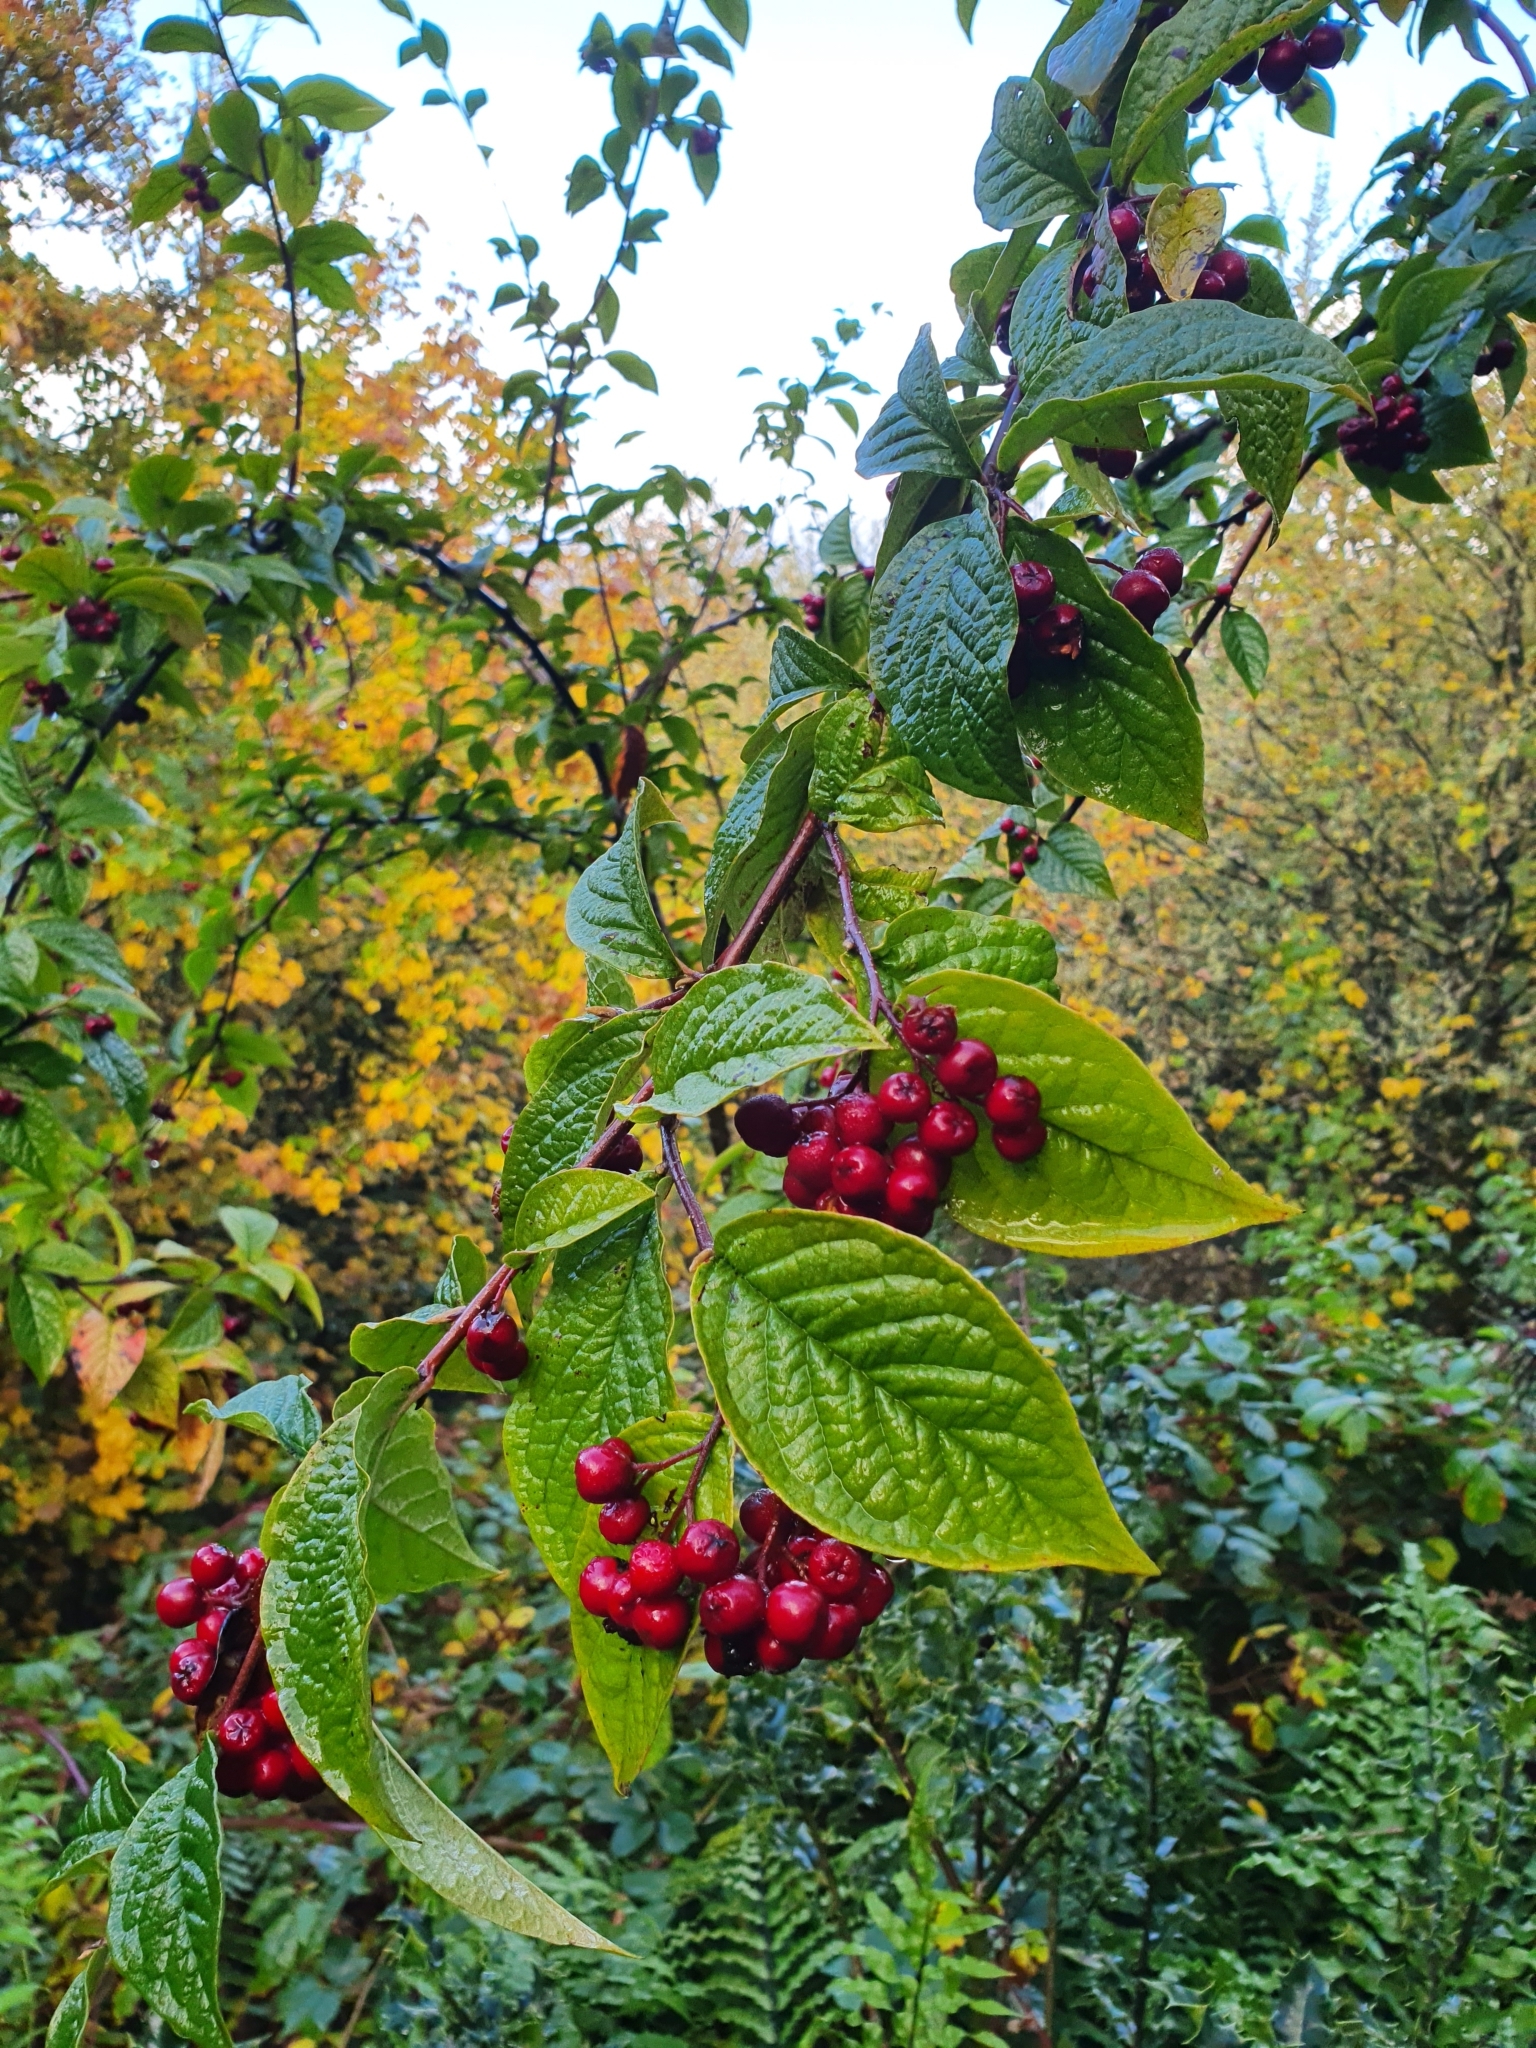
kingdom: Plantae
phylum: Tracheophyta
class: Magnoliopsida
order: Rosales
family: Rosaceae
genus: Cotoneaster
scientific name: Cotoneaster bullatus
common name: Hollyberry cotoneaster
